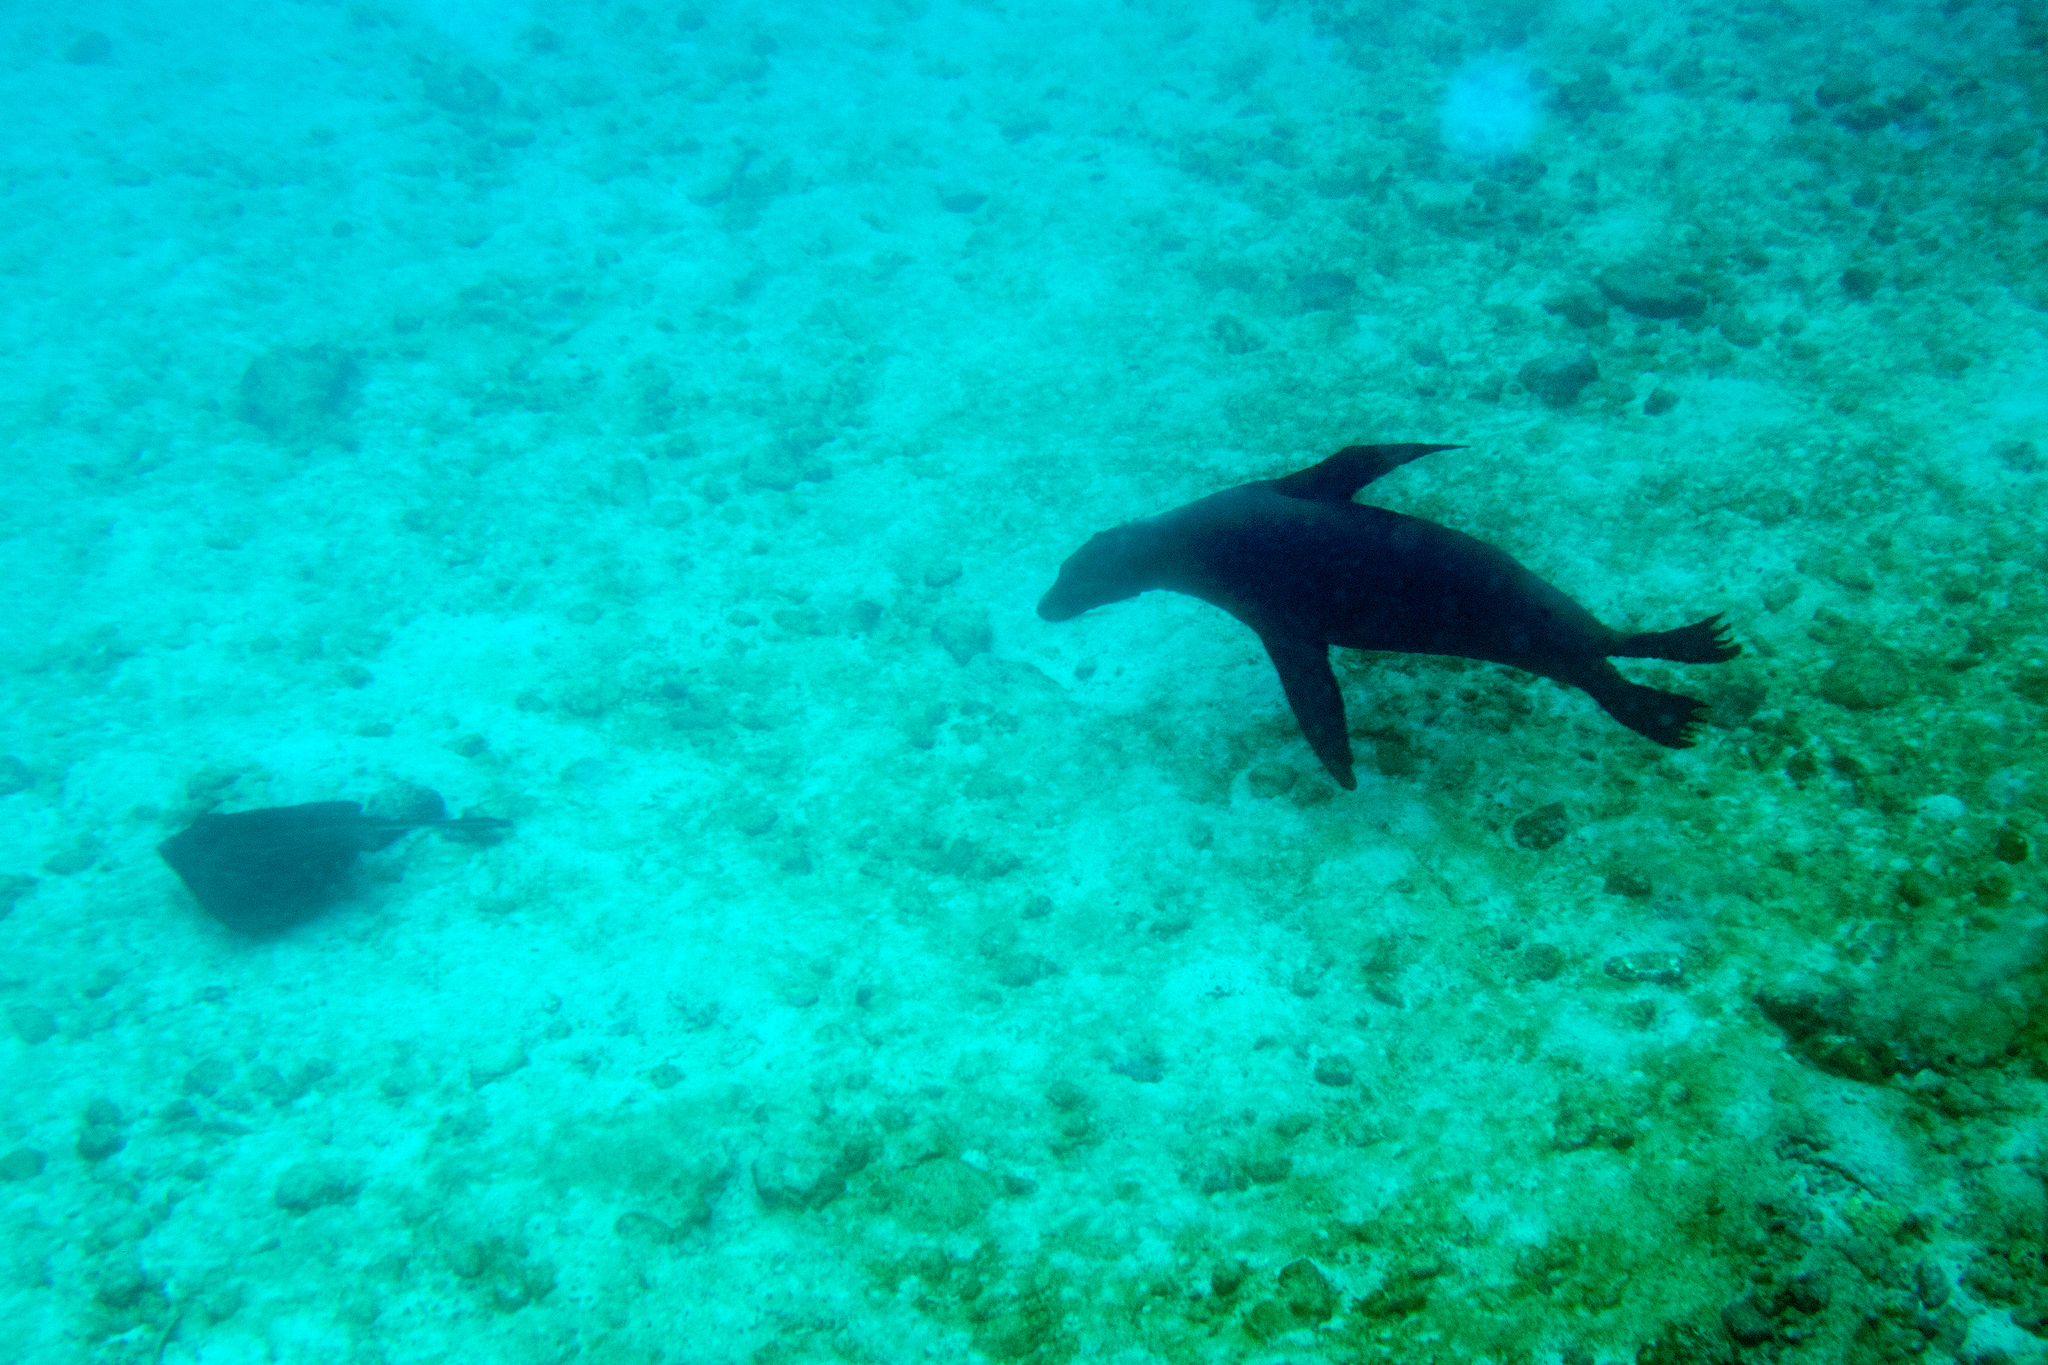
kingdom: Animalia
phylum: Chordata
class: Mammalia
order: Carnivora
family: Otariidae
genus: Zalophus
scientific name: Zalophus wollebaeki
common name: Galapagos sea lion
